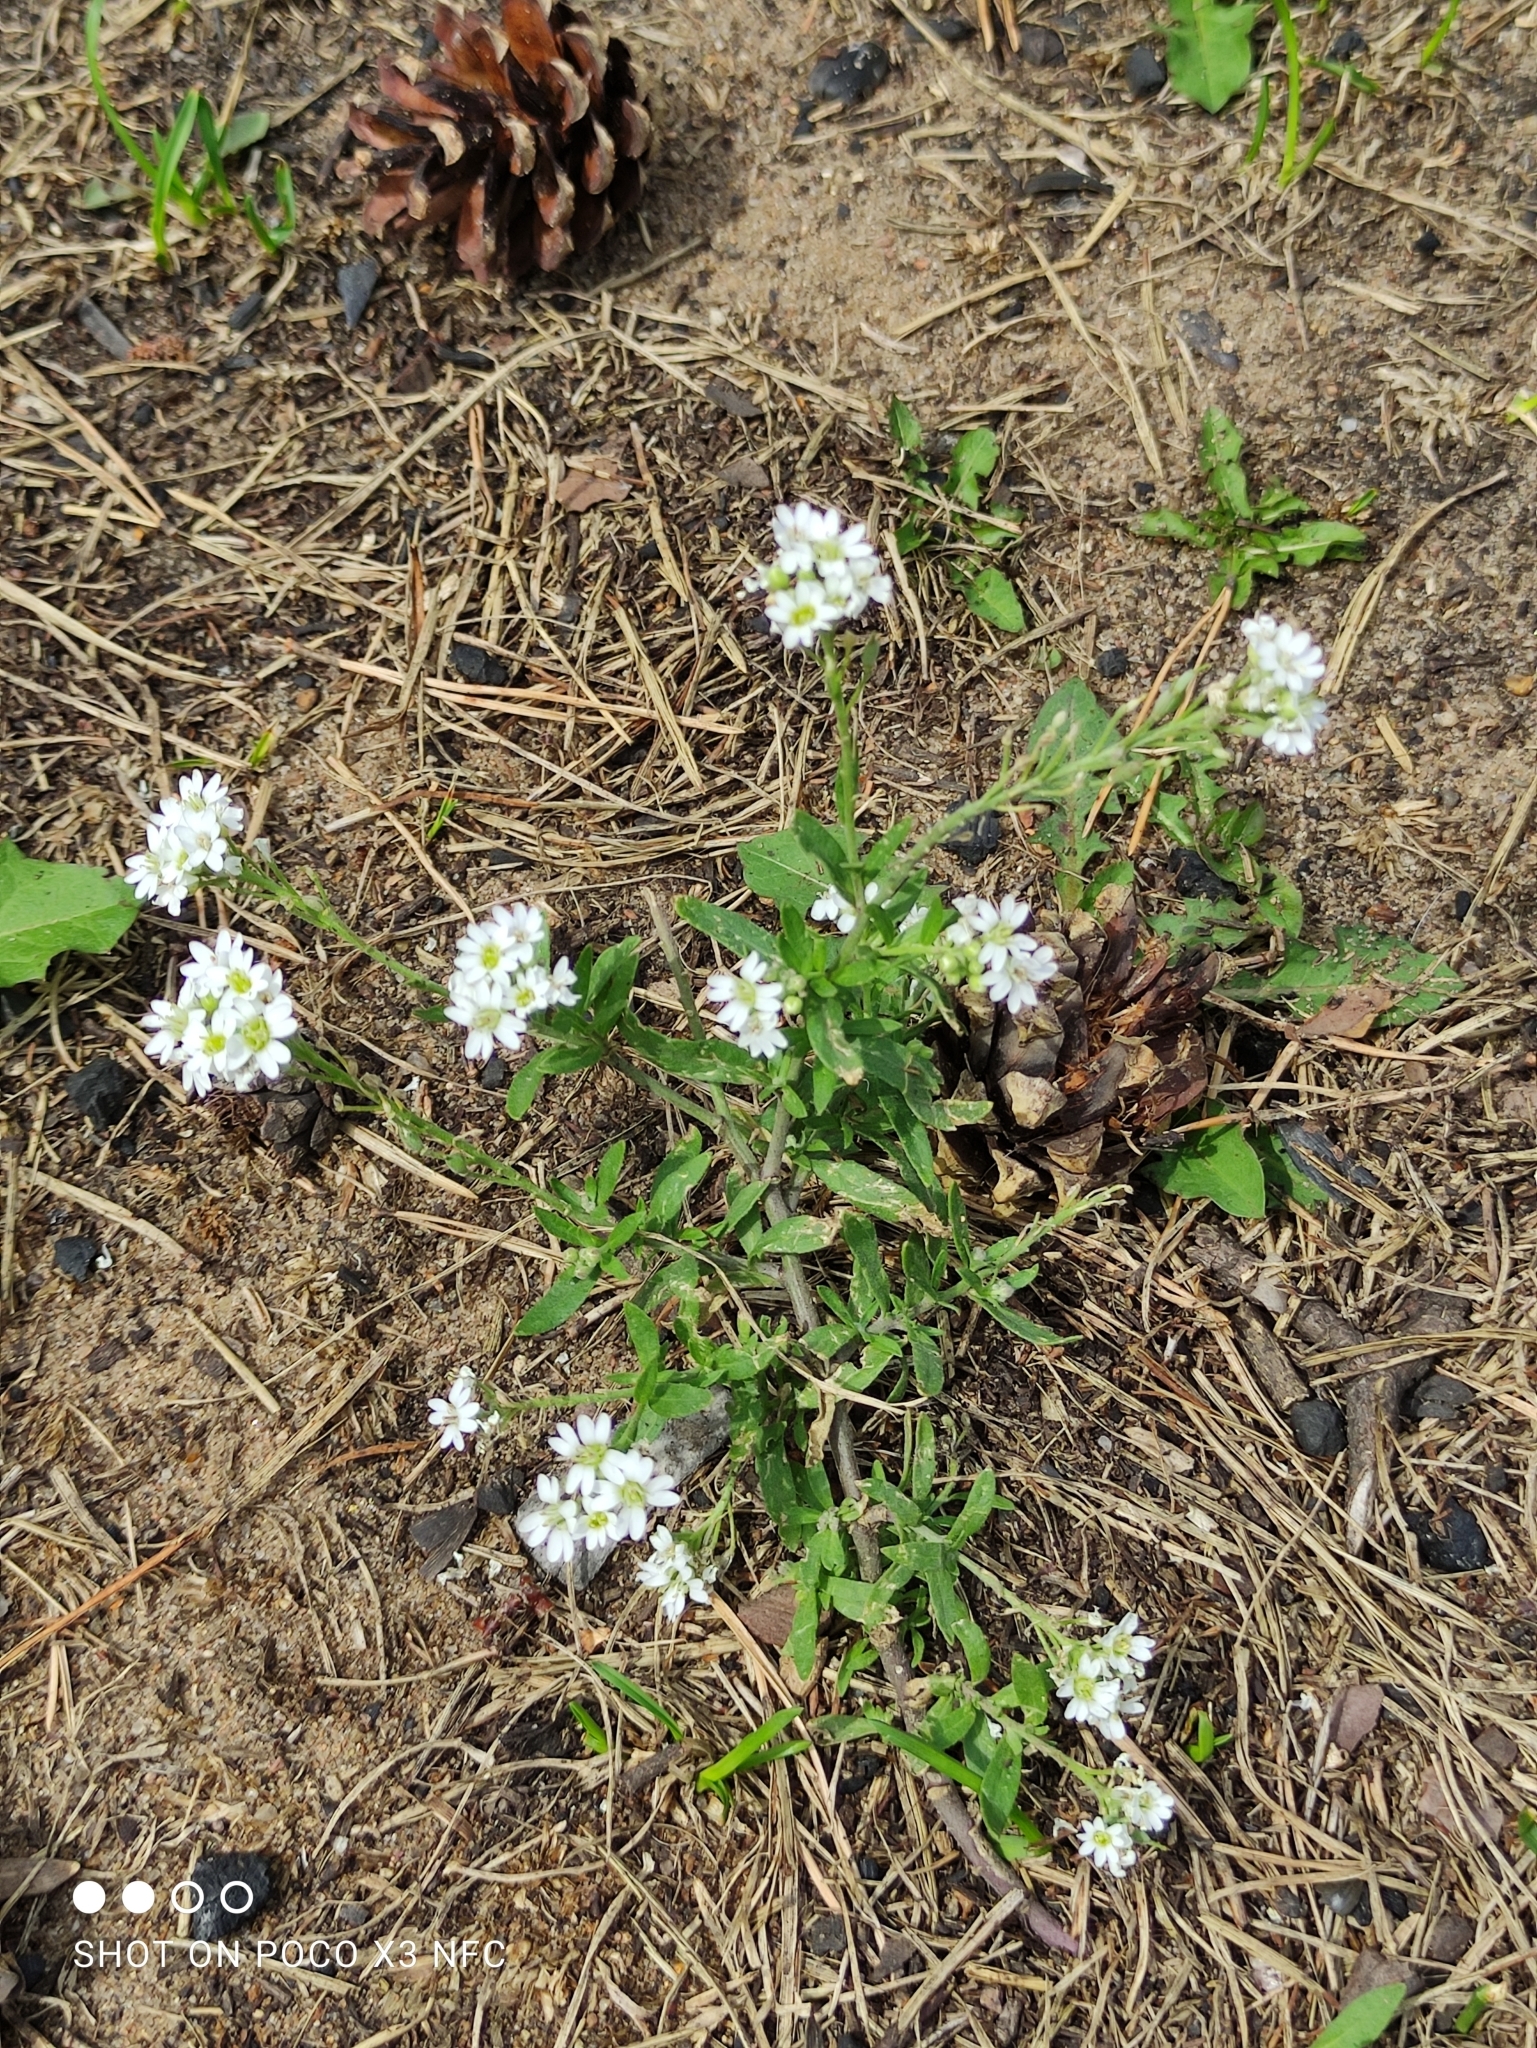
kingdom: Plantae
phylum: Tracheophyta
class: Magnoliopsida
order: Brassicales
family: Brassicaceae
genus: Berteroa
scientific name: Berteroa incana
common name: Hoary alison
